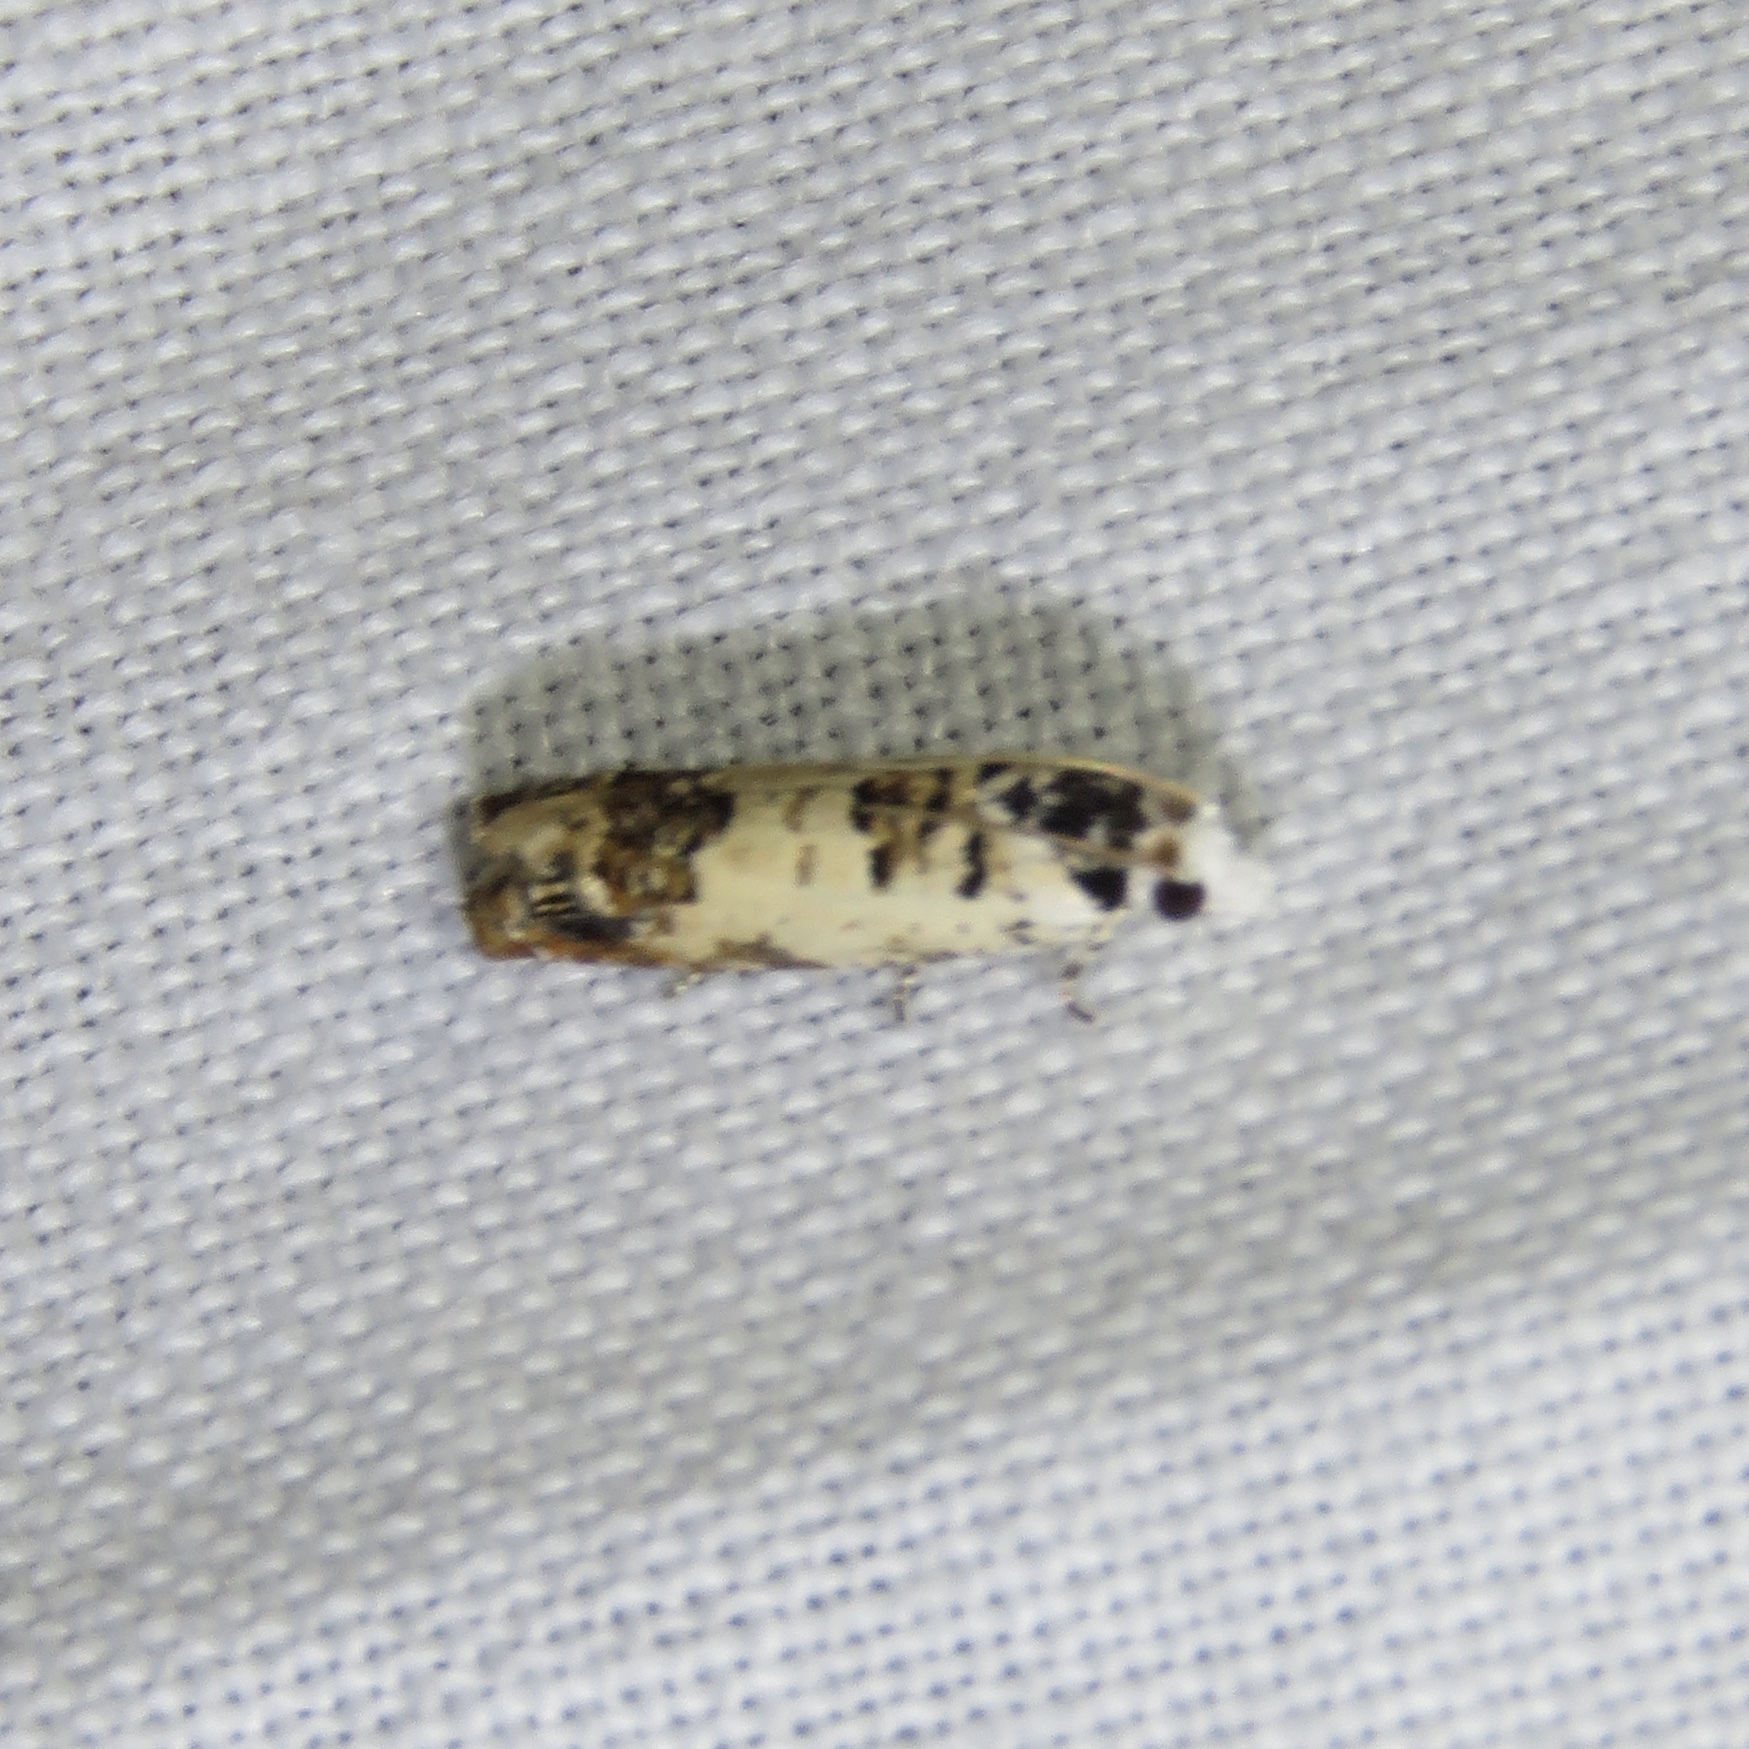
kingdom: Animalia
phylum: Arthropoda
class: Insecta
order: Lepidoptera
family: Tortricidae
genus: Eucosma
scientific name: Eucosma ornatula
